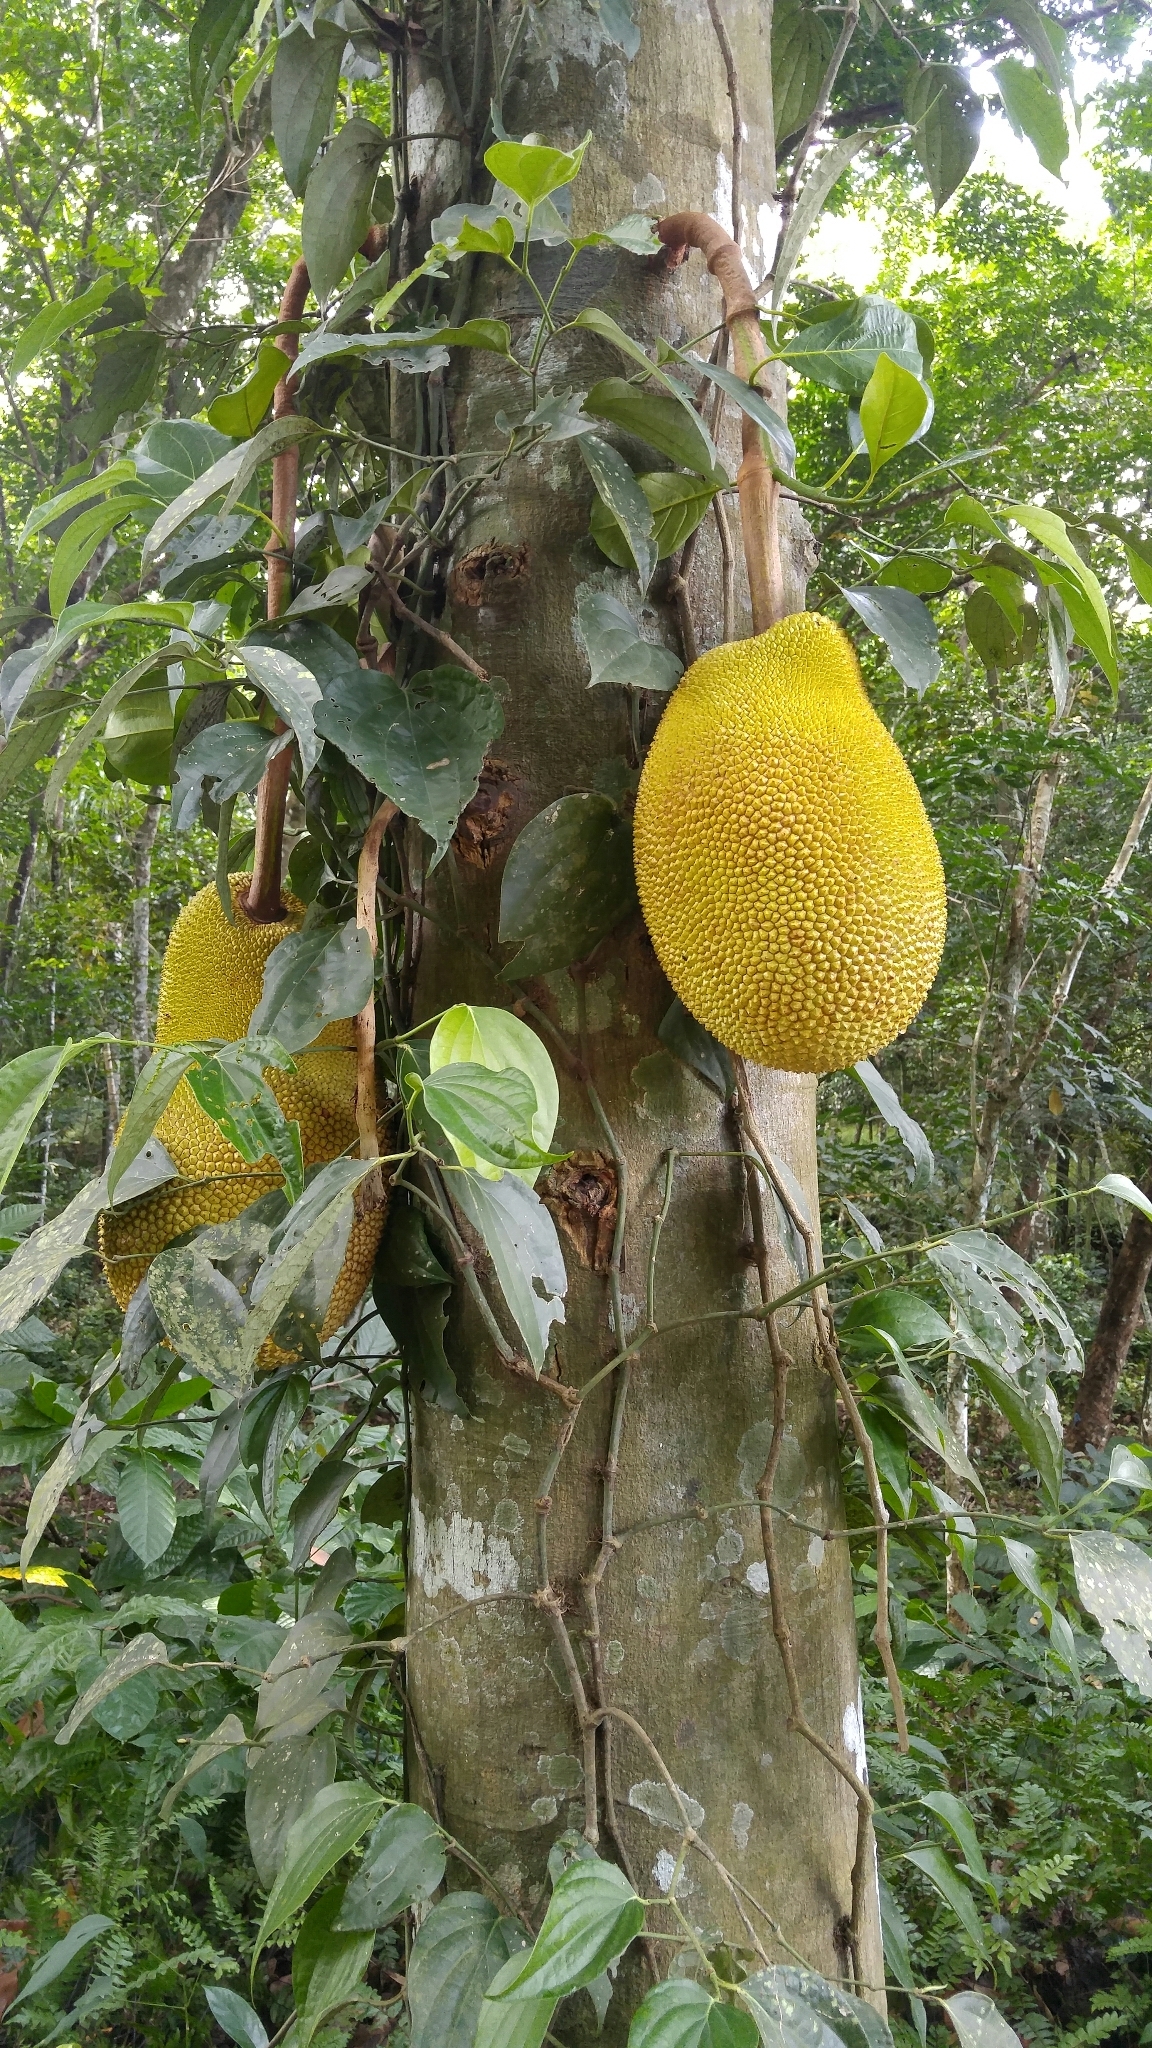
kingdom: Plantae
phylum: Tracheophyta
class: Magnoliopsida
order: Rosales
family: Moraceae
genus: Artocarpus
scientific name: Artocarpus heterophyllus
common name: Jackfruit
